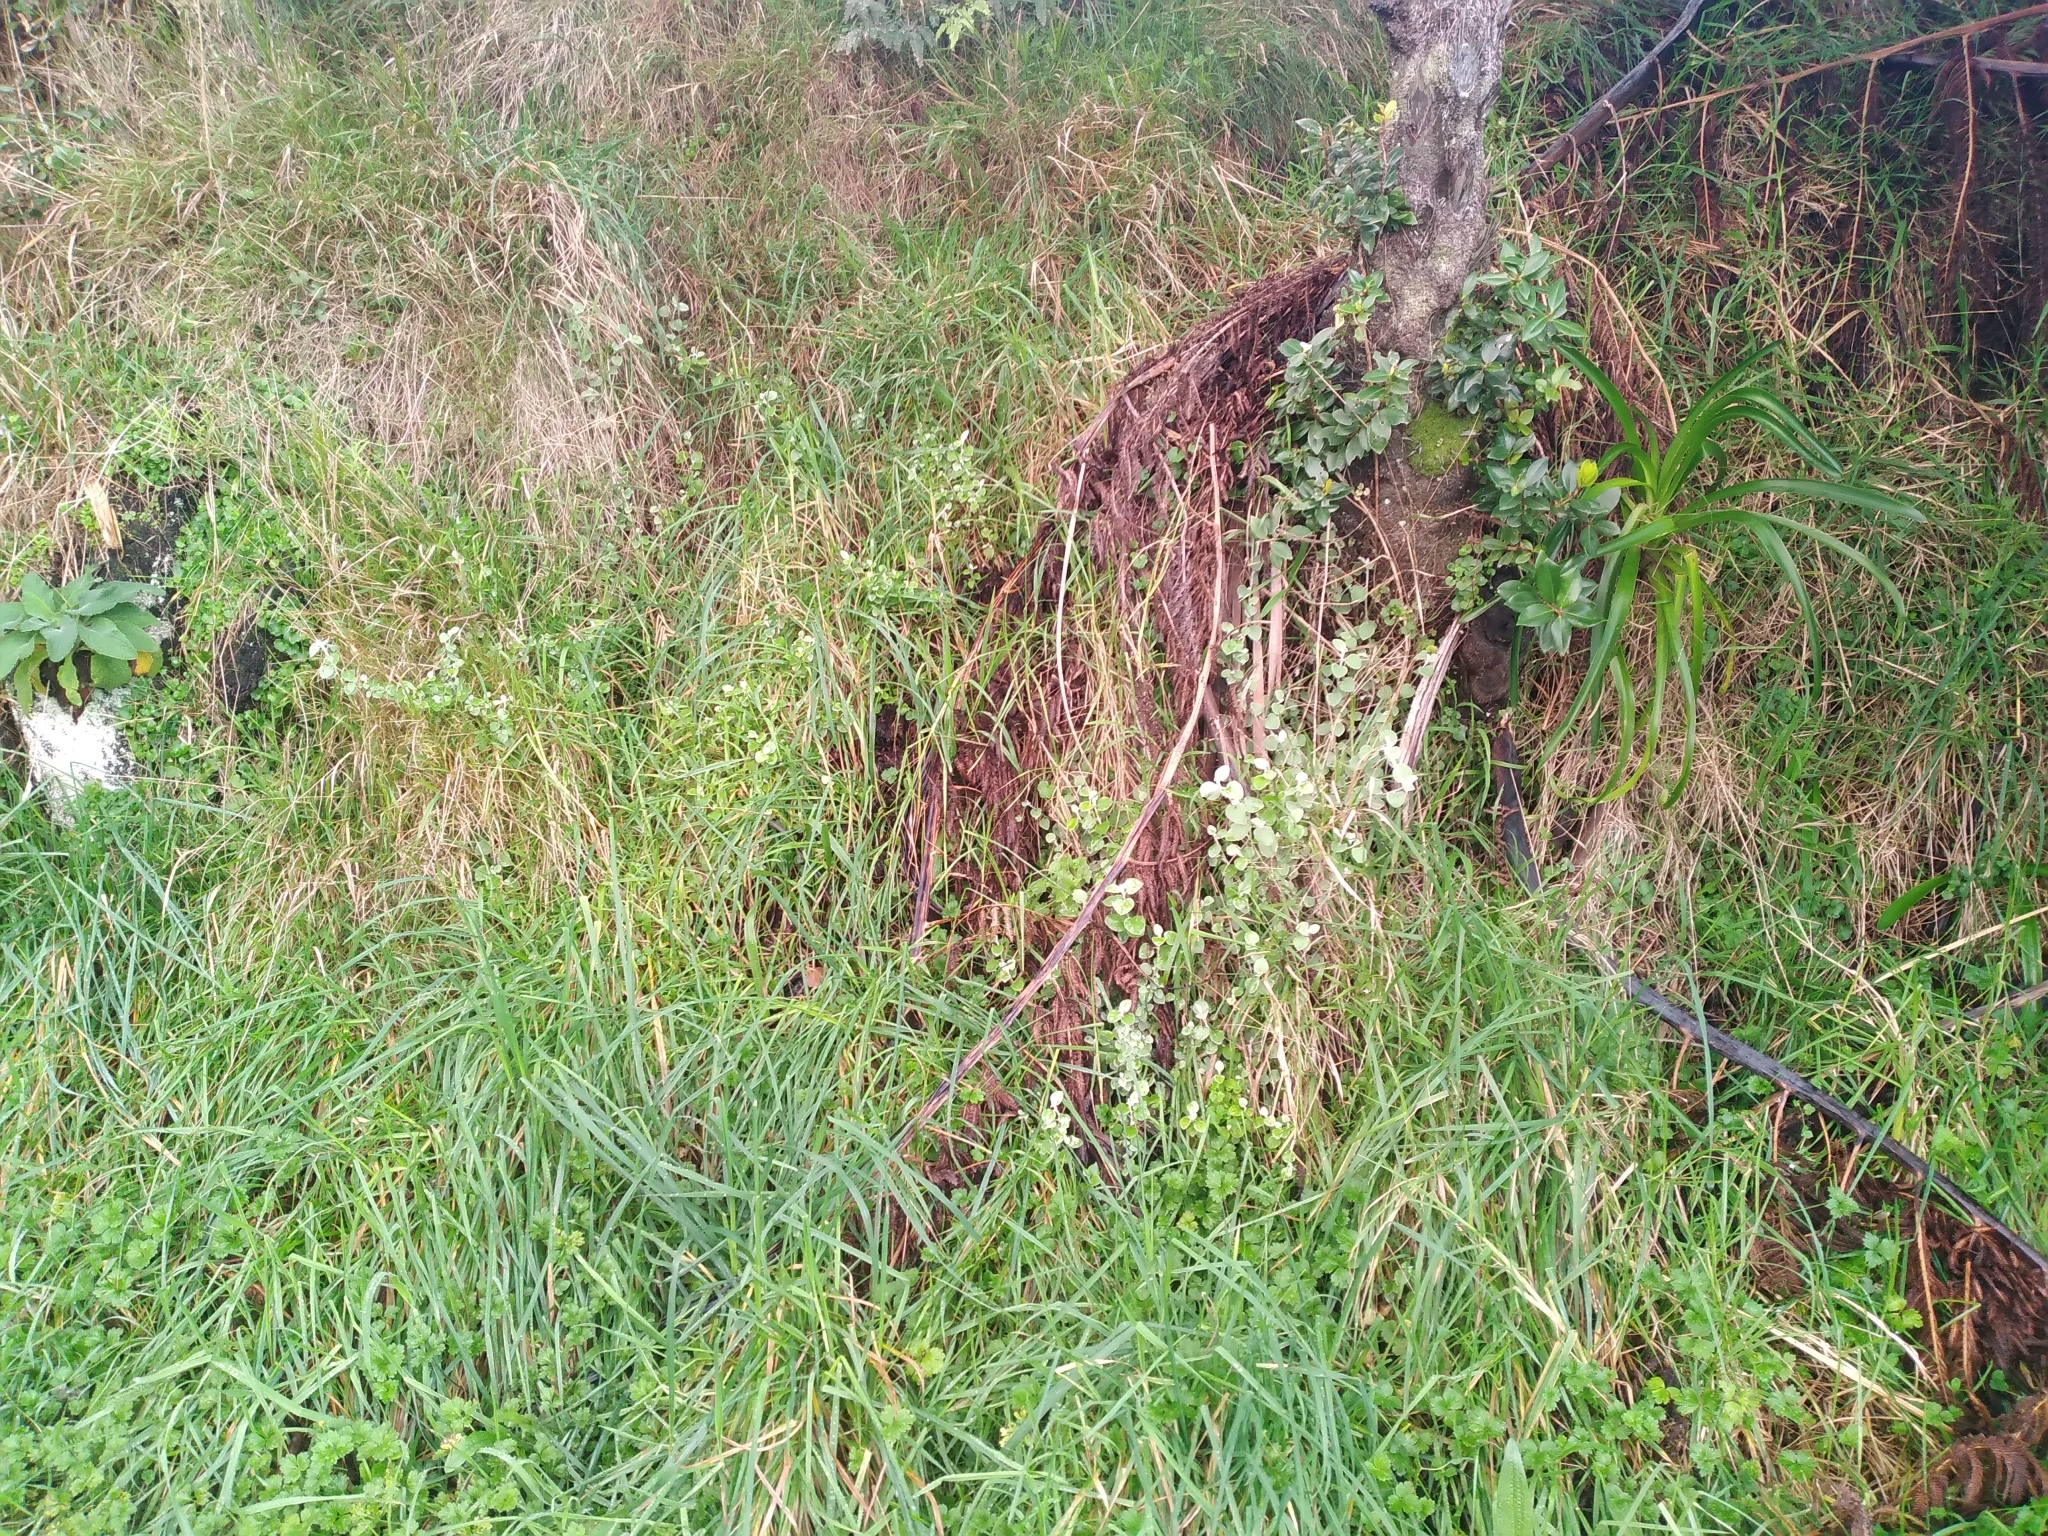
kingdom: Plantae
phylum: Tracheophyta
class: Magnoliopsida
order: Asterales
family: Asteraceae
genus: Helichrysum
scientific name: Helichrysum petiolare
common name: Licorice-plant
